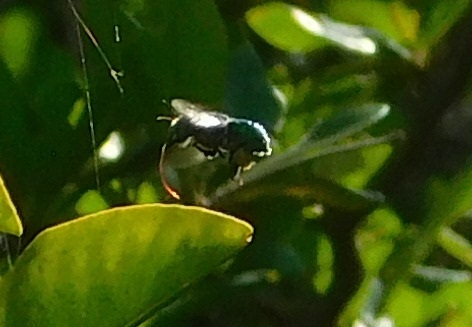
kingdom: Animalia
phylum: Arthropoda
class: Insecta
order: Hymenoptera
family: Apidae
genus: Euglossa
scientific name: Euglossa dilemma
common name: Green orchid bee
